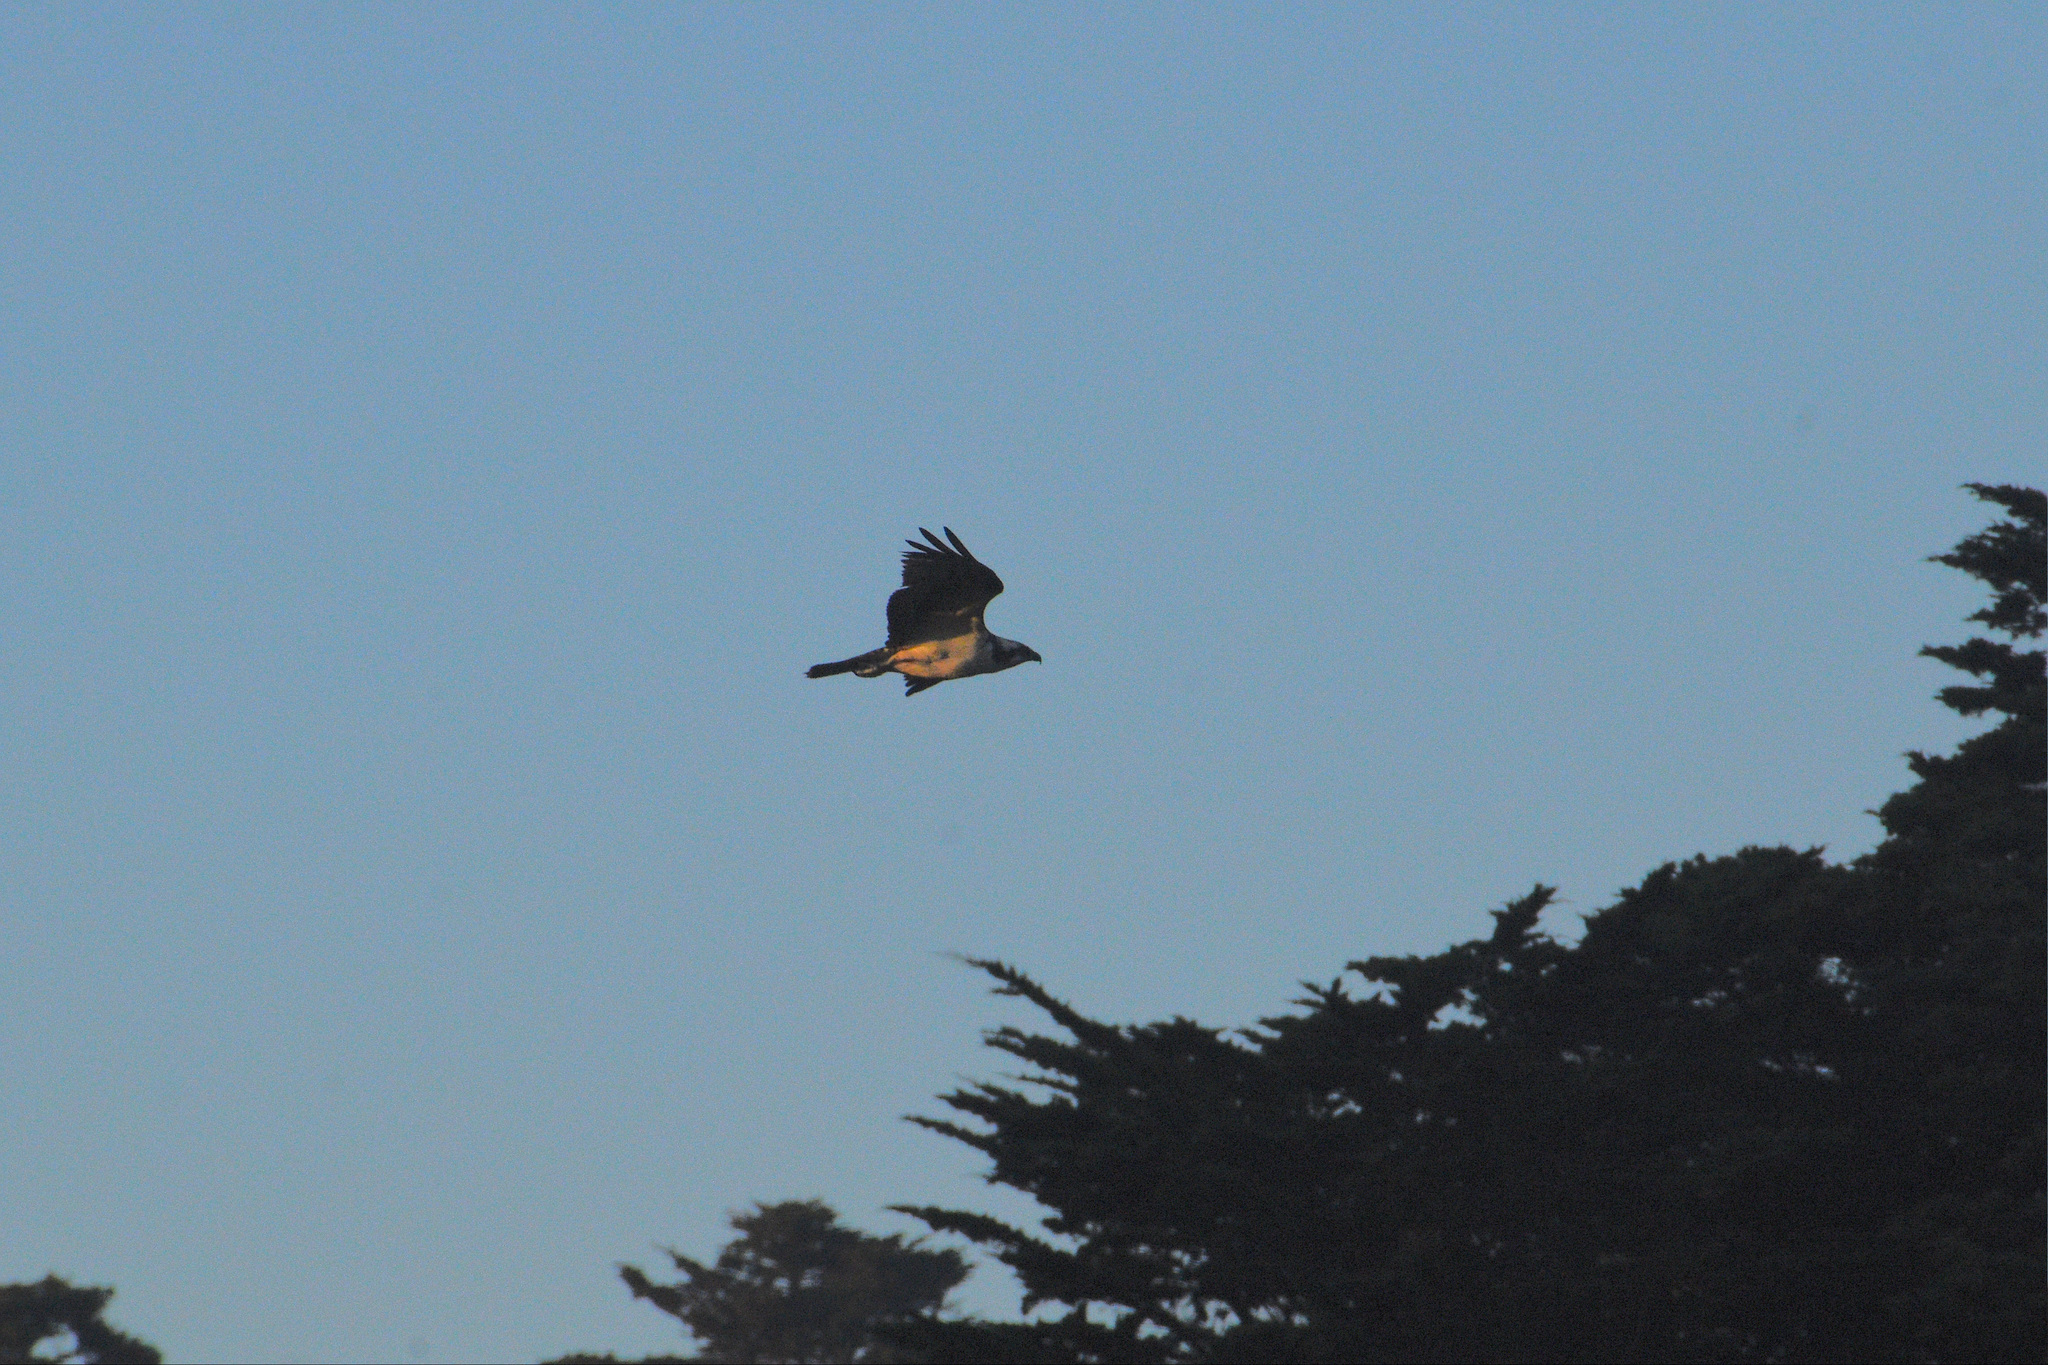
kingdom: Animalia
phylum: Chordata
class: Aves
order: Accipitriformes
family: Pandionidae
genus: Pandion
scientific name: Pandion haliaetus
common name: Osprey
